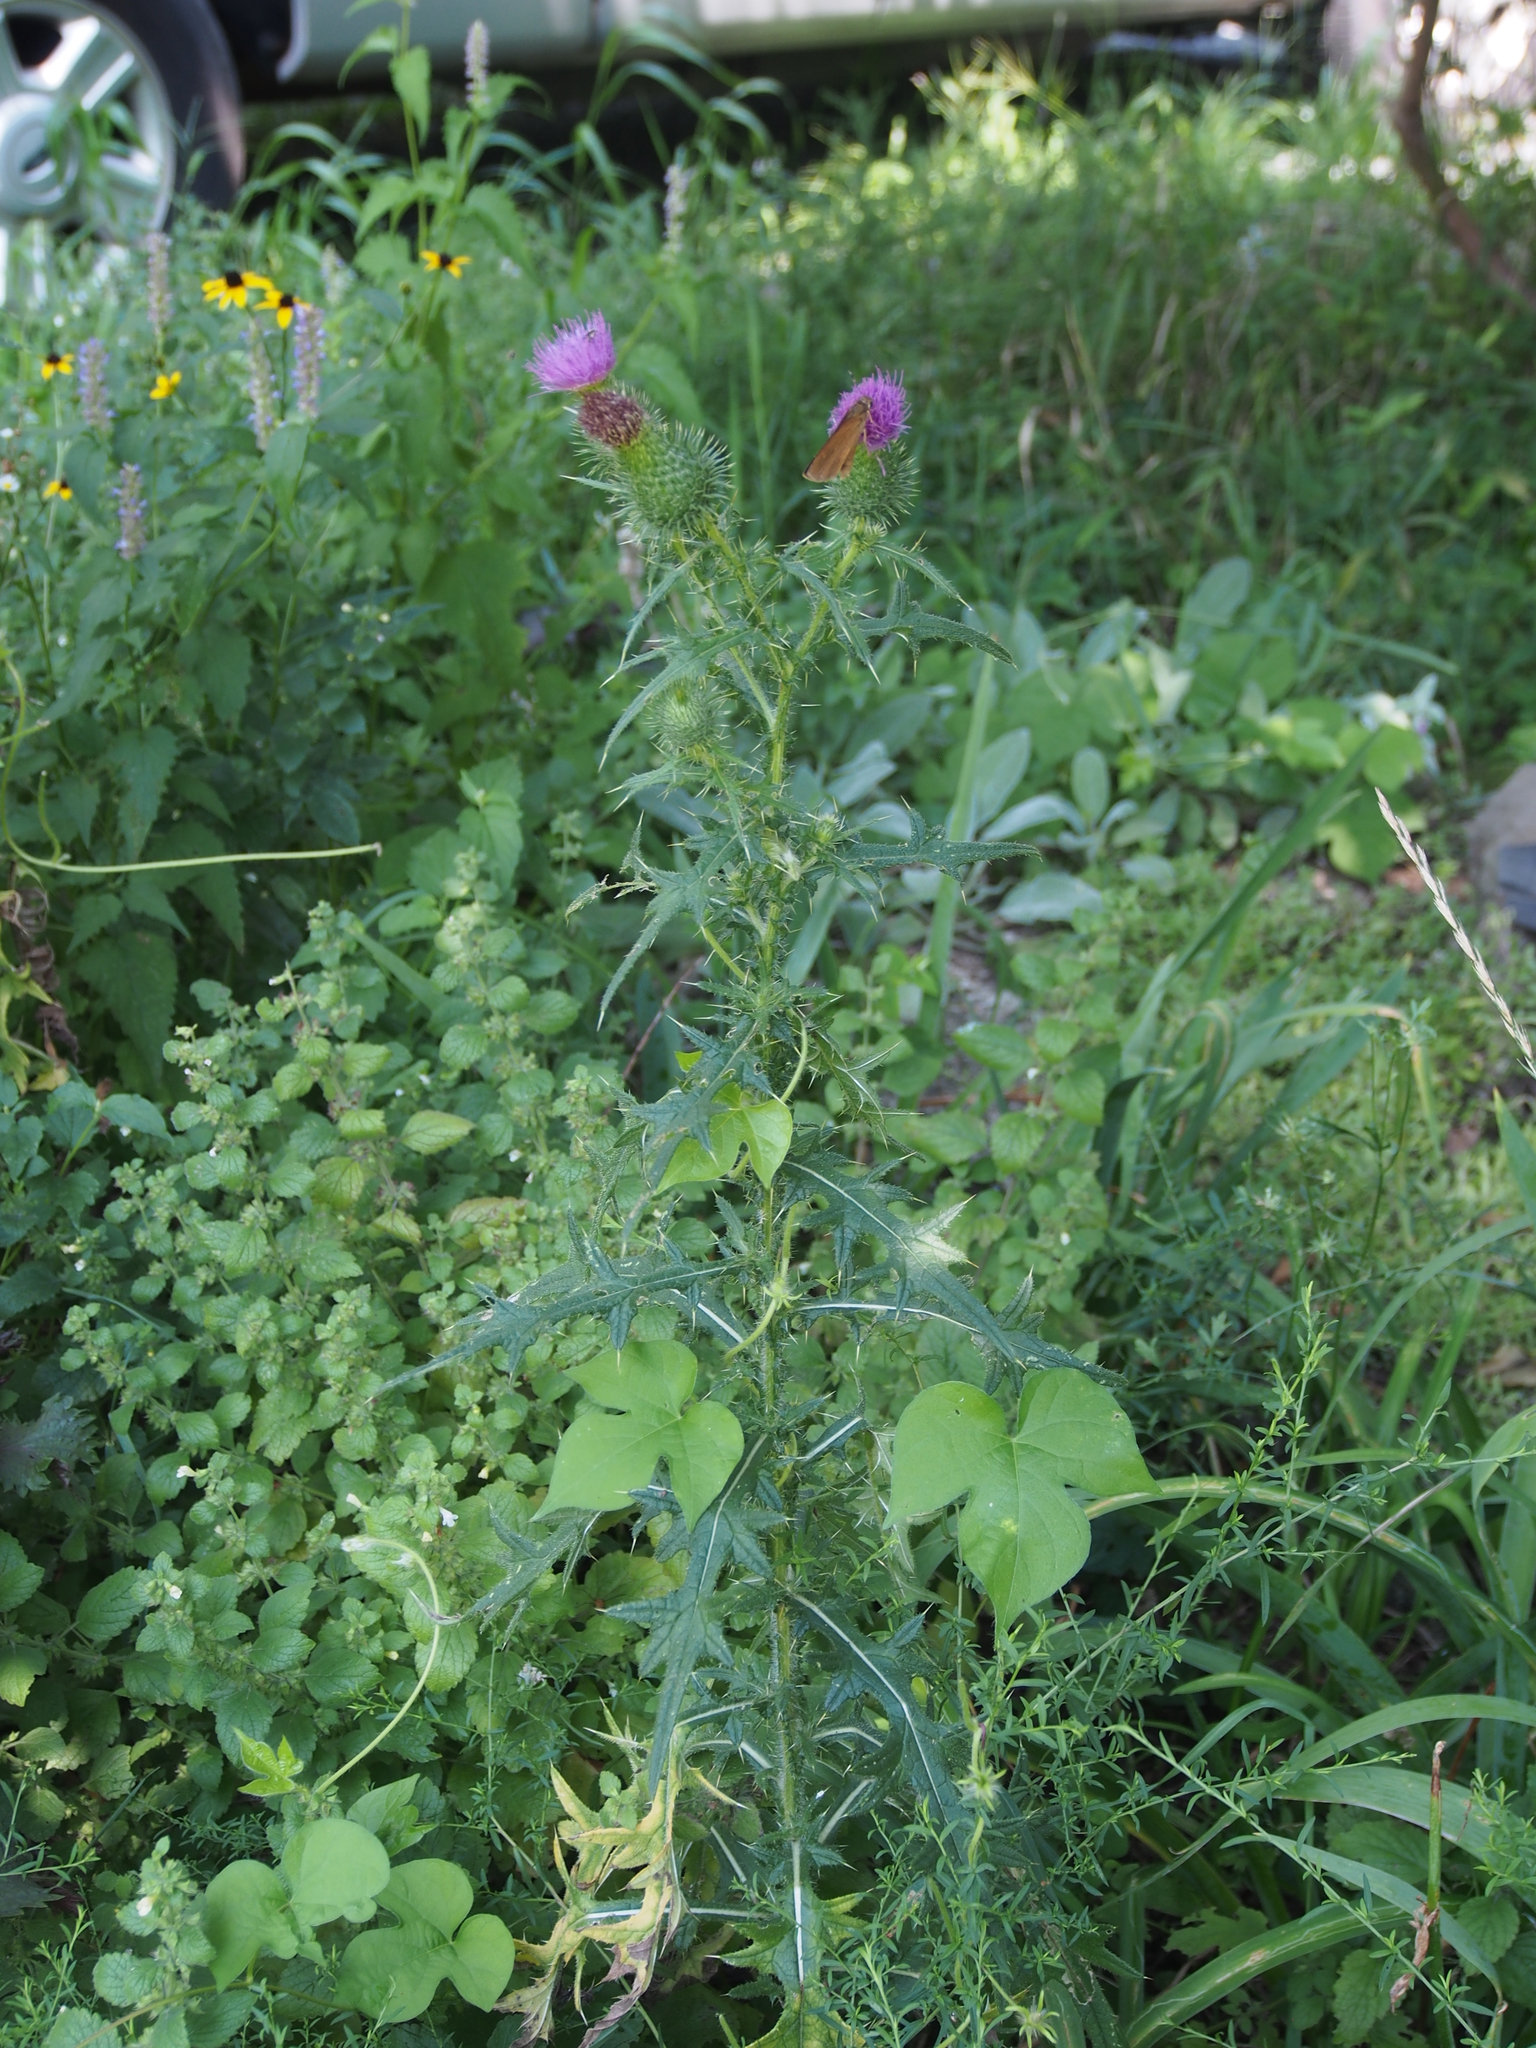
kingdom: Plantae
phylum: Tracheophyta
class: Magnoliopsida
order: Asterales
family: Asteraceae
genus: Cirsium
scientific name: Cirsium vulgare
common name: Bull thistle
